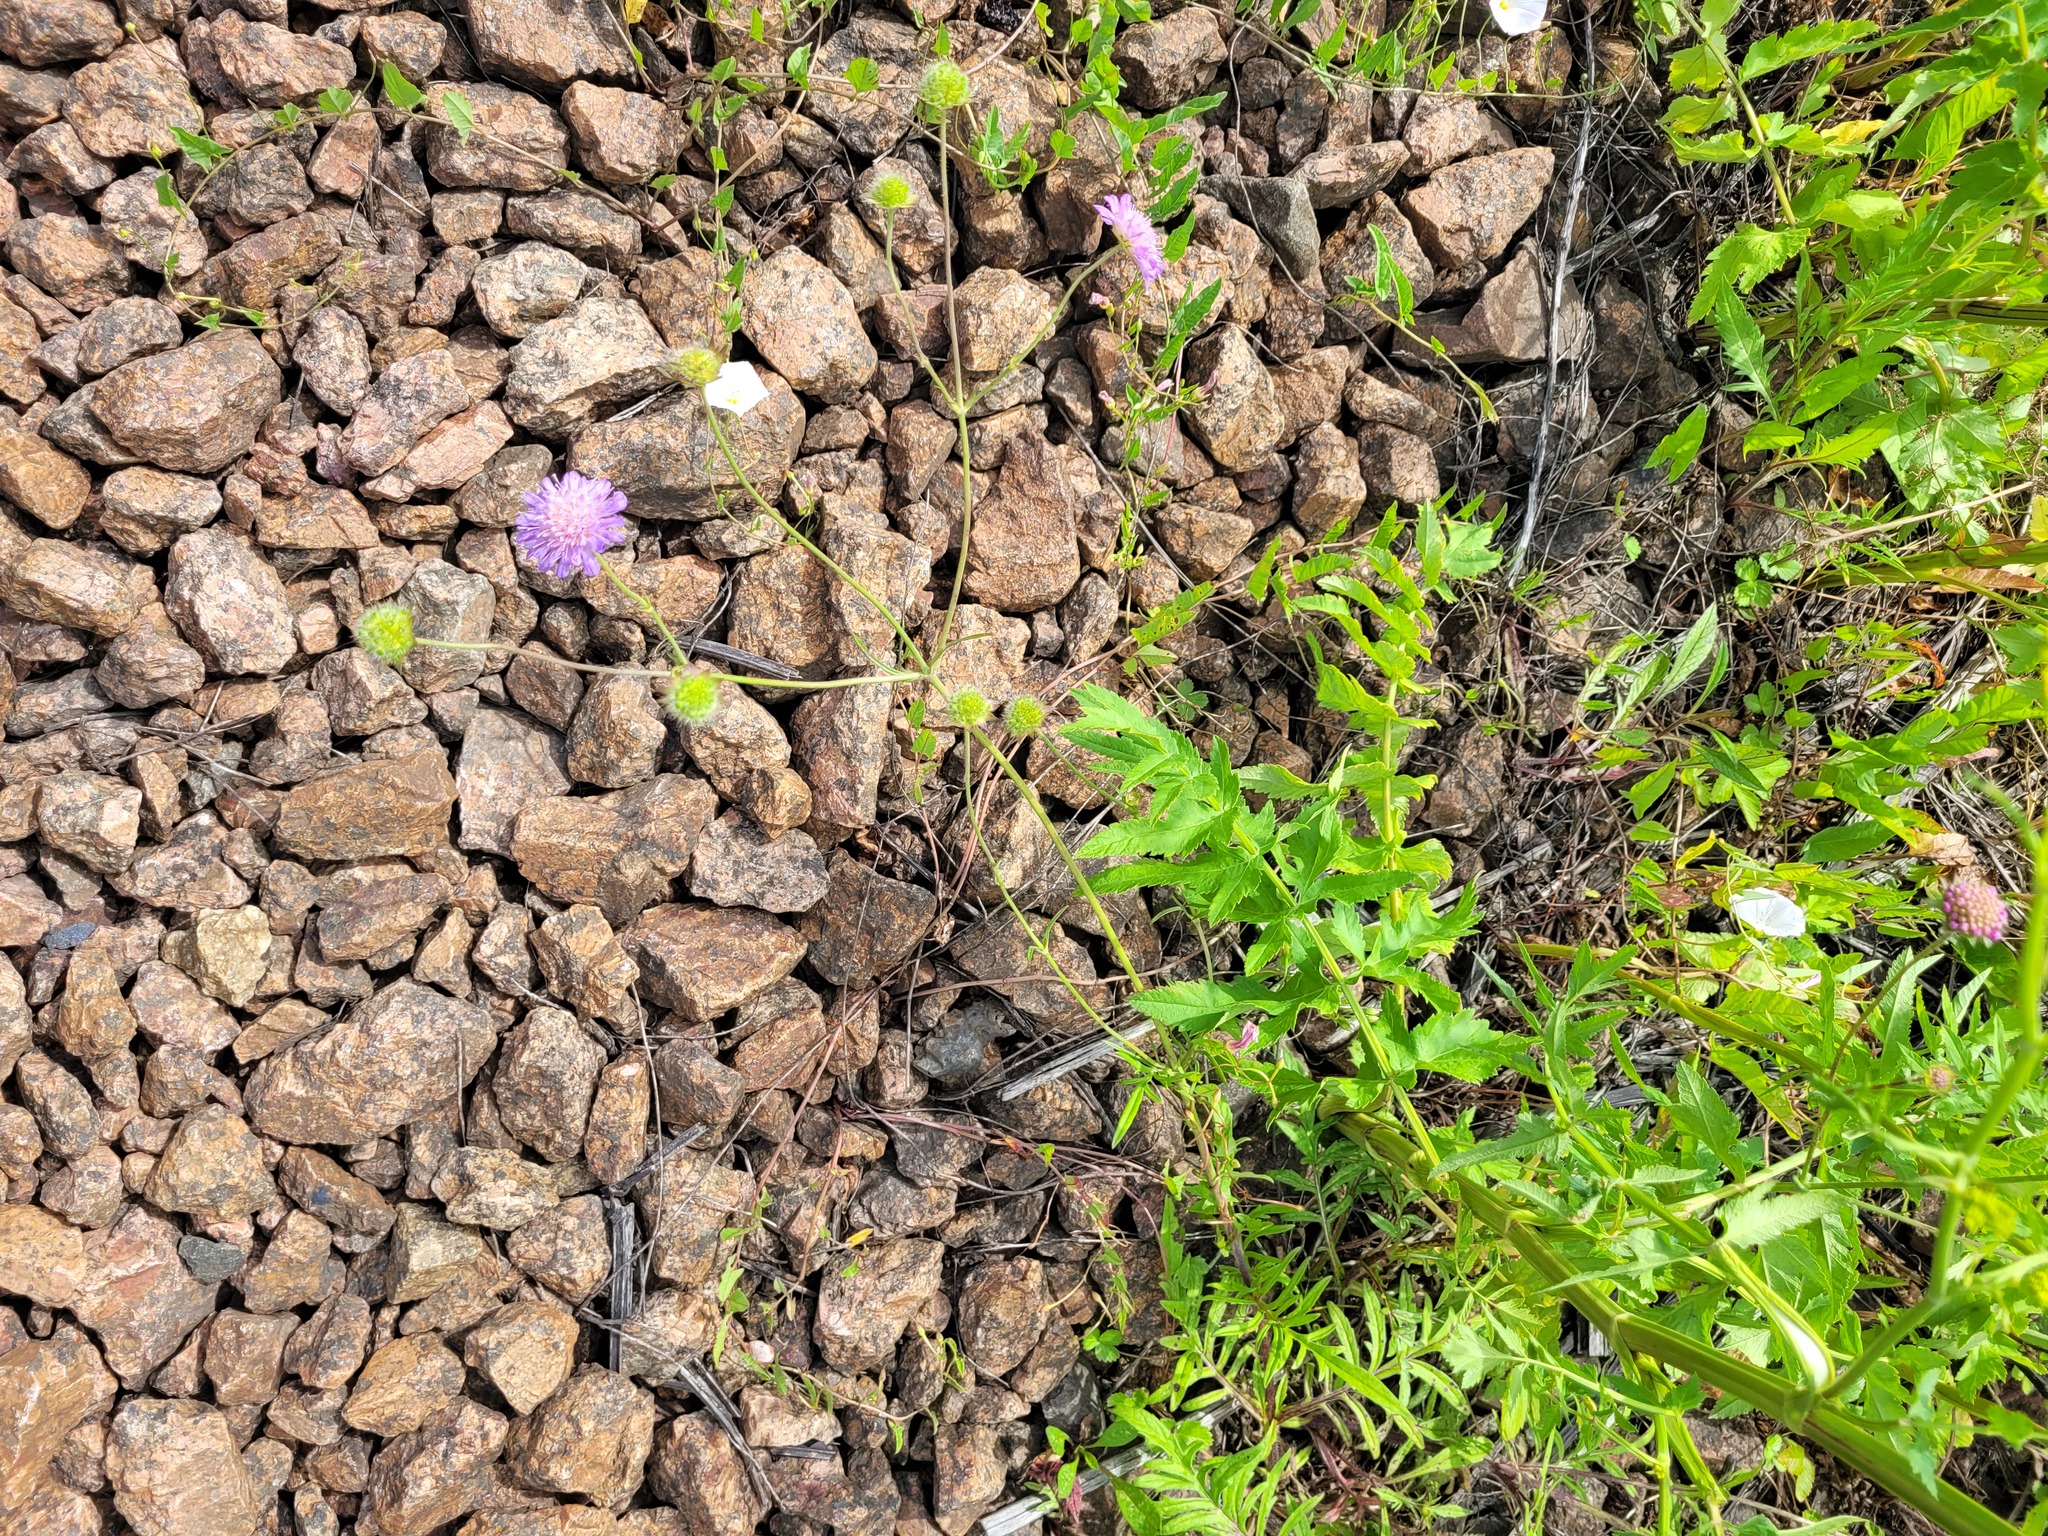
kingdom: Plantae
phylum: Tracheophyta
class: Magnoliopsida
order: Dipsacales
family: Caprifoliaceae
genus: Knautia
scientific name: Knautia arvensis
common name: Field scabiosa
